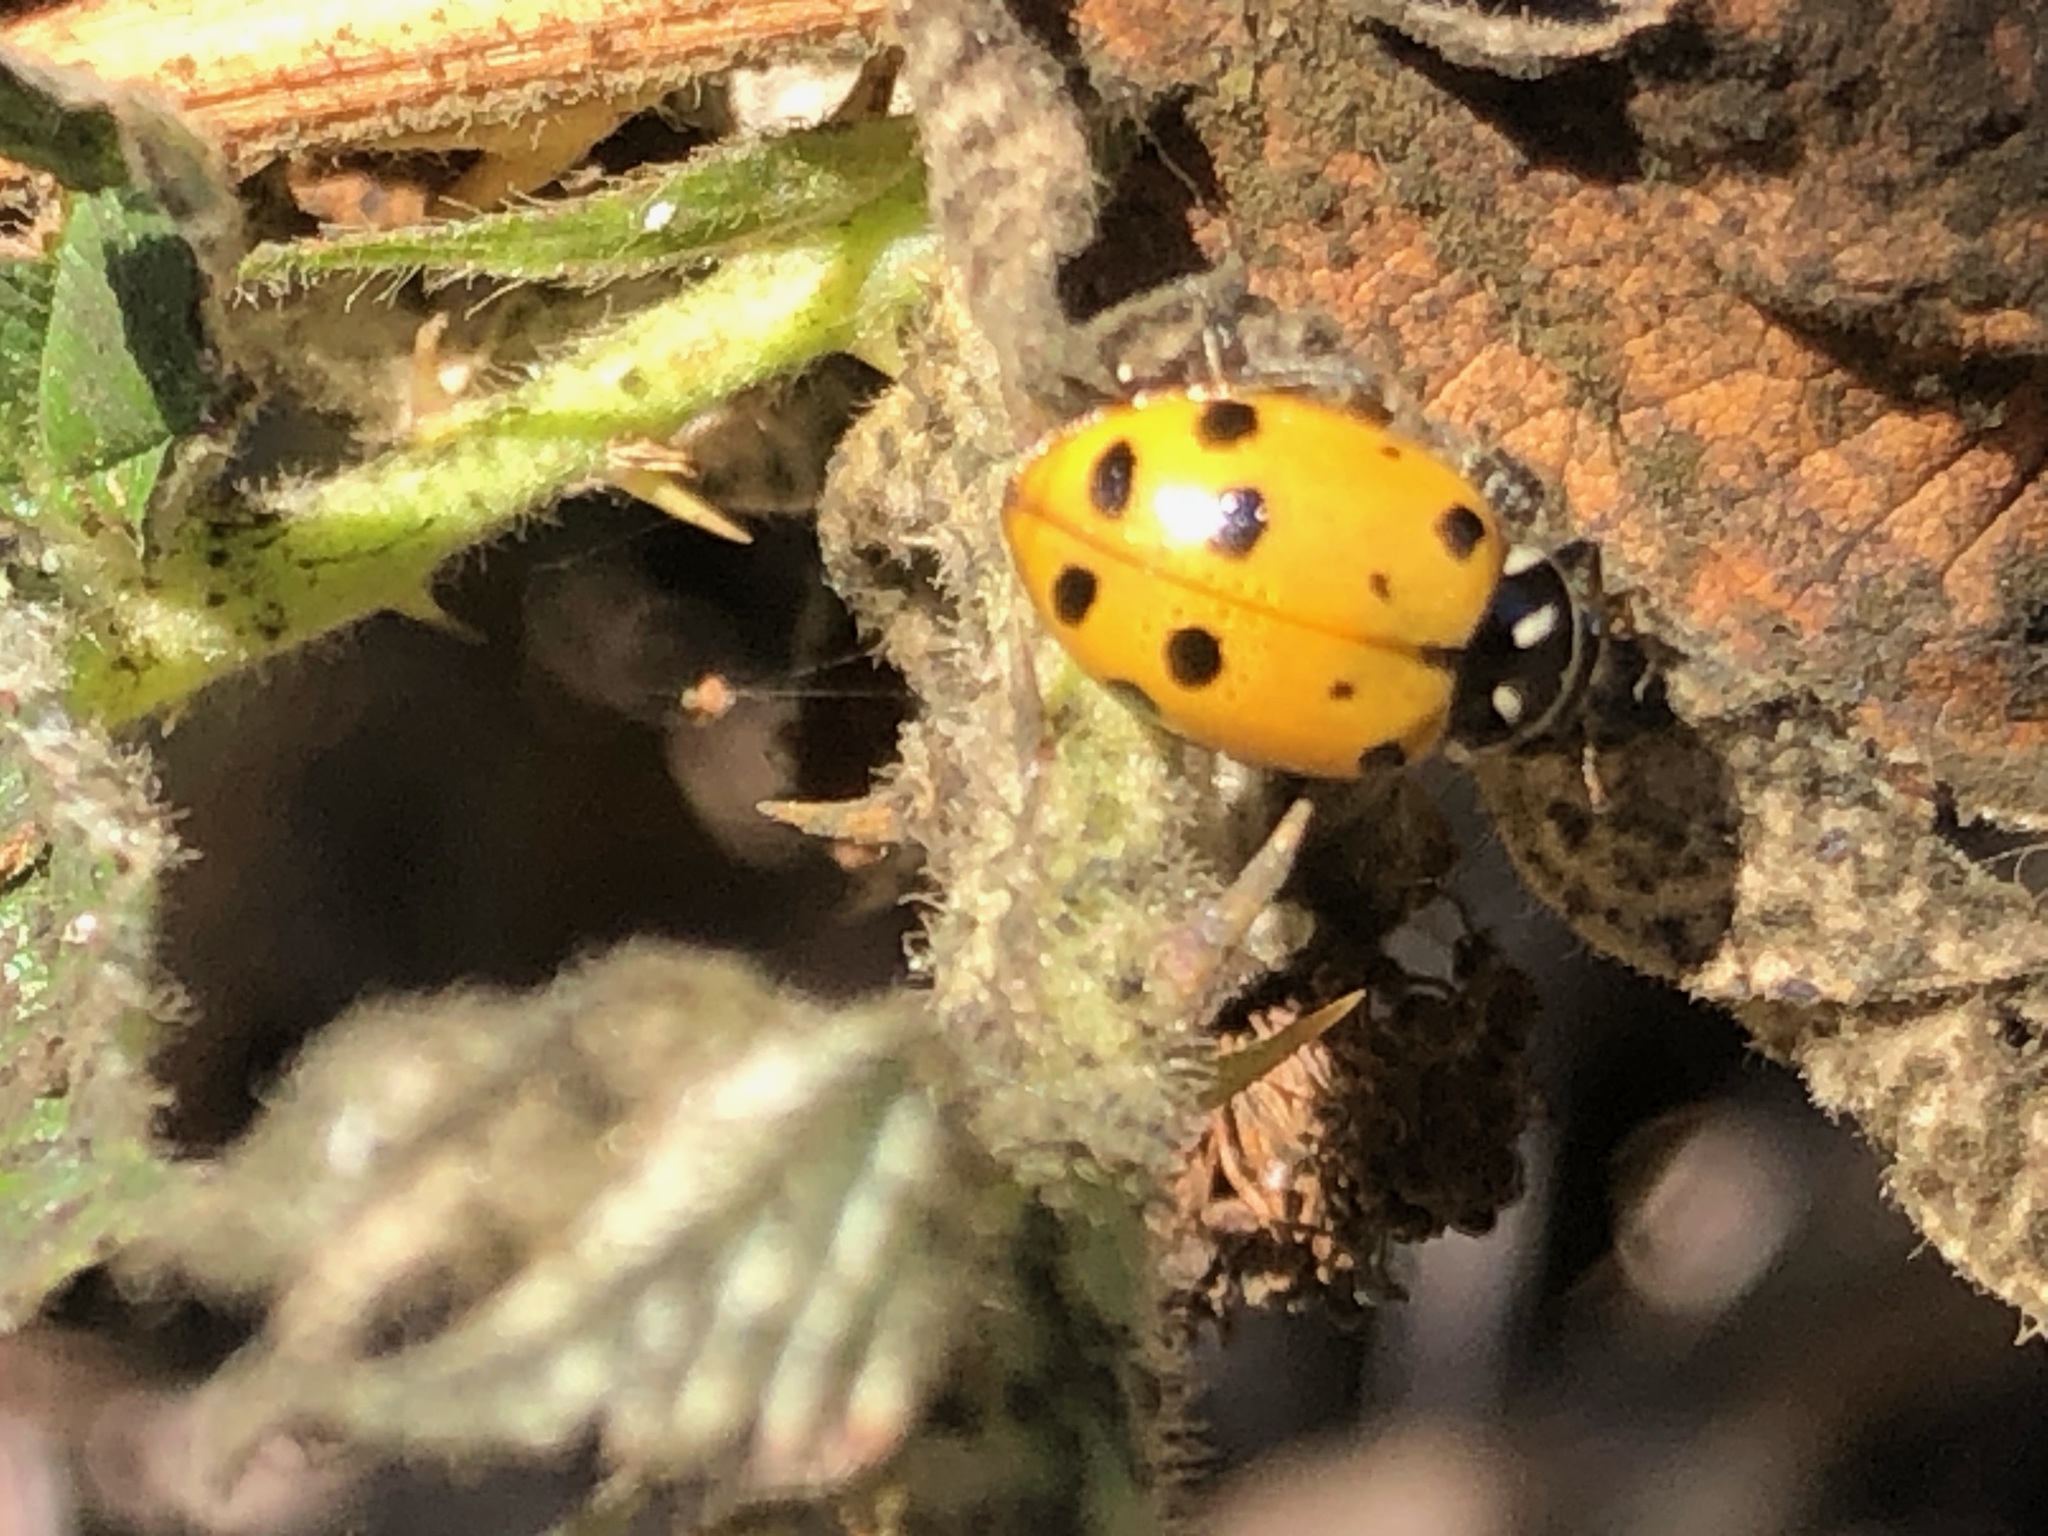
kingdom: Animalia
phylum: Arthropoda
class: Insecta
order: Coleoptera
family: Coccinellidae
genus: Hippodamia
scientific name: Hippodamia convergens
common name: Convergent lady beetle
